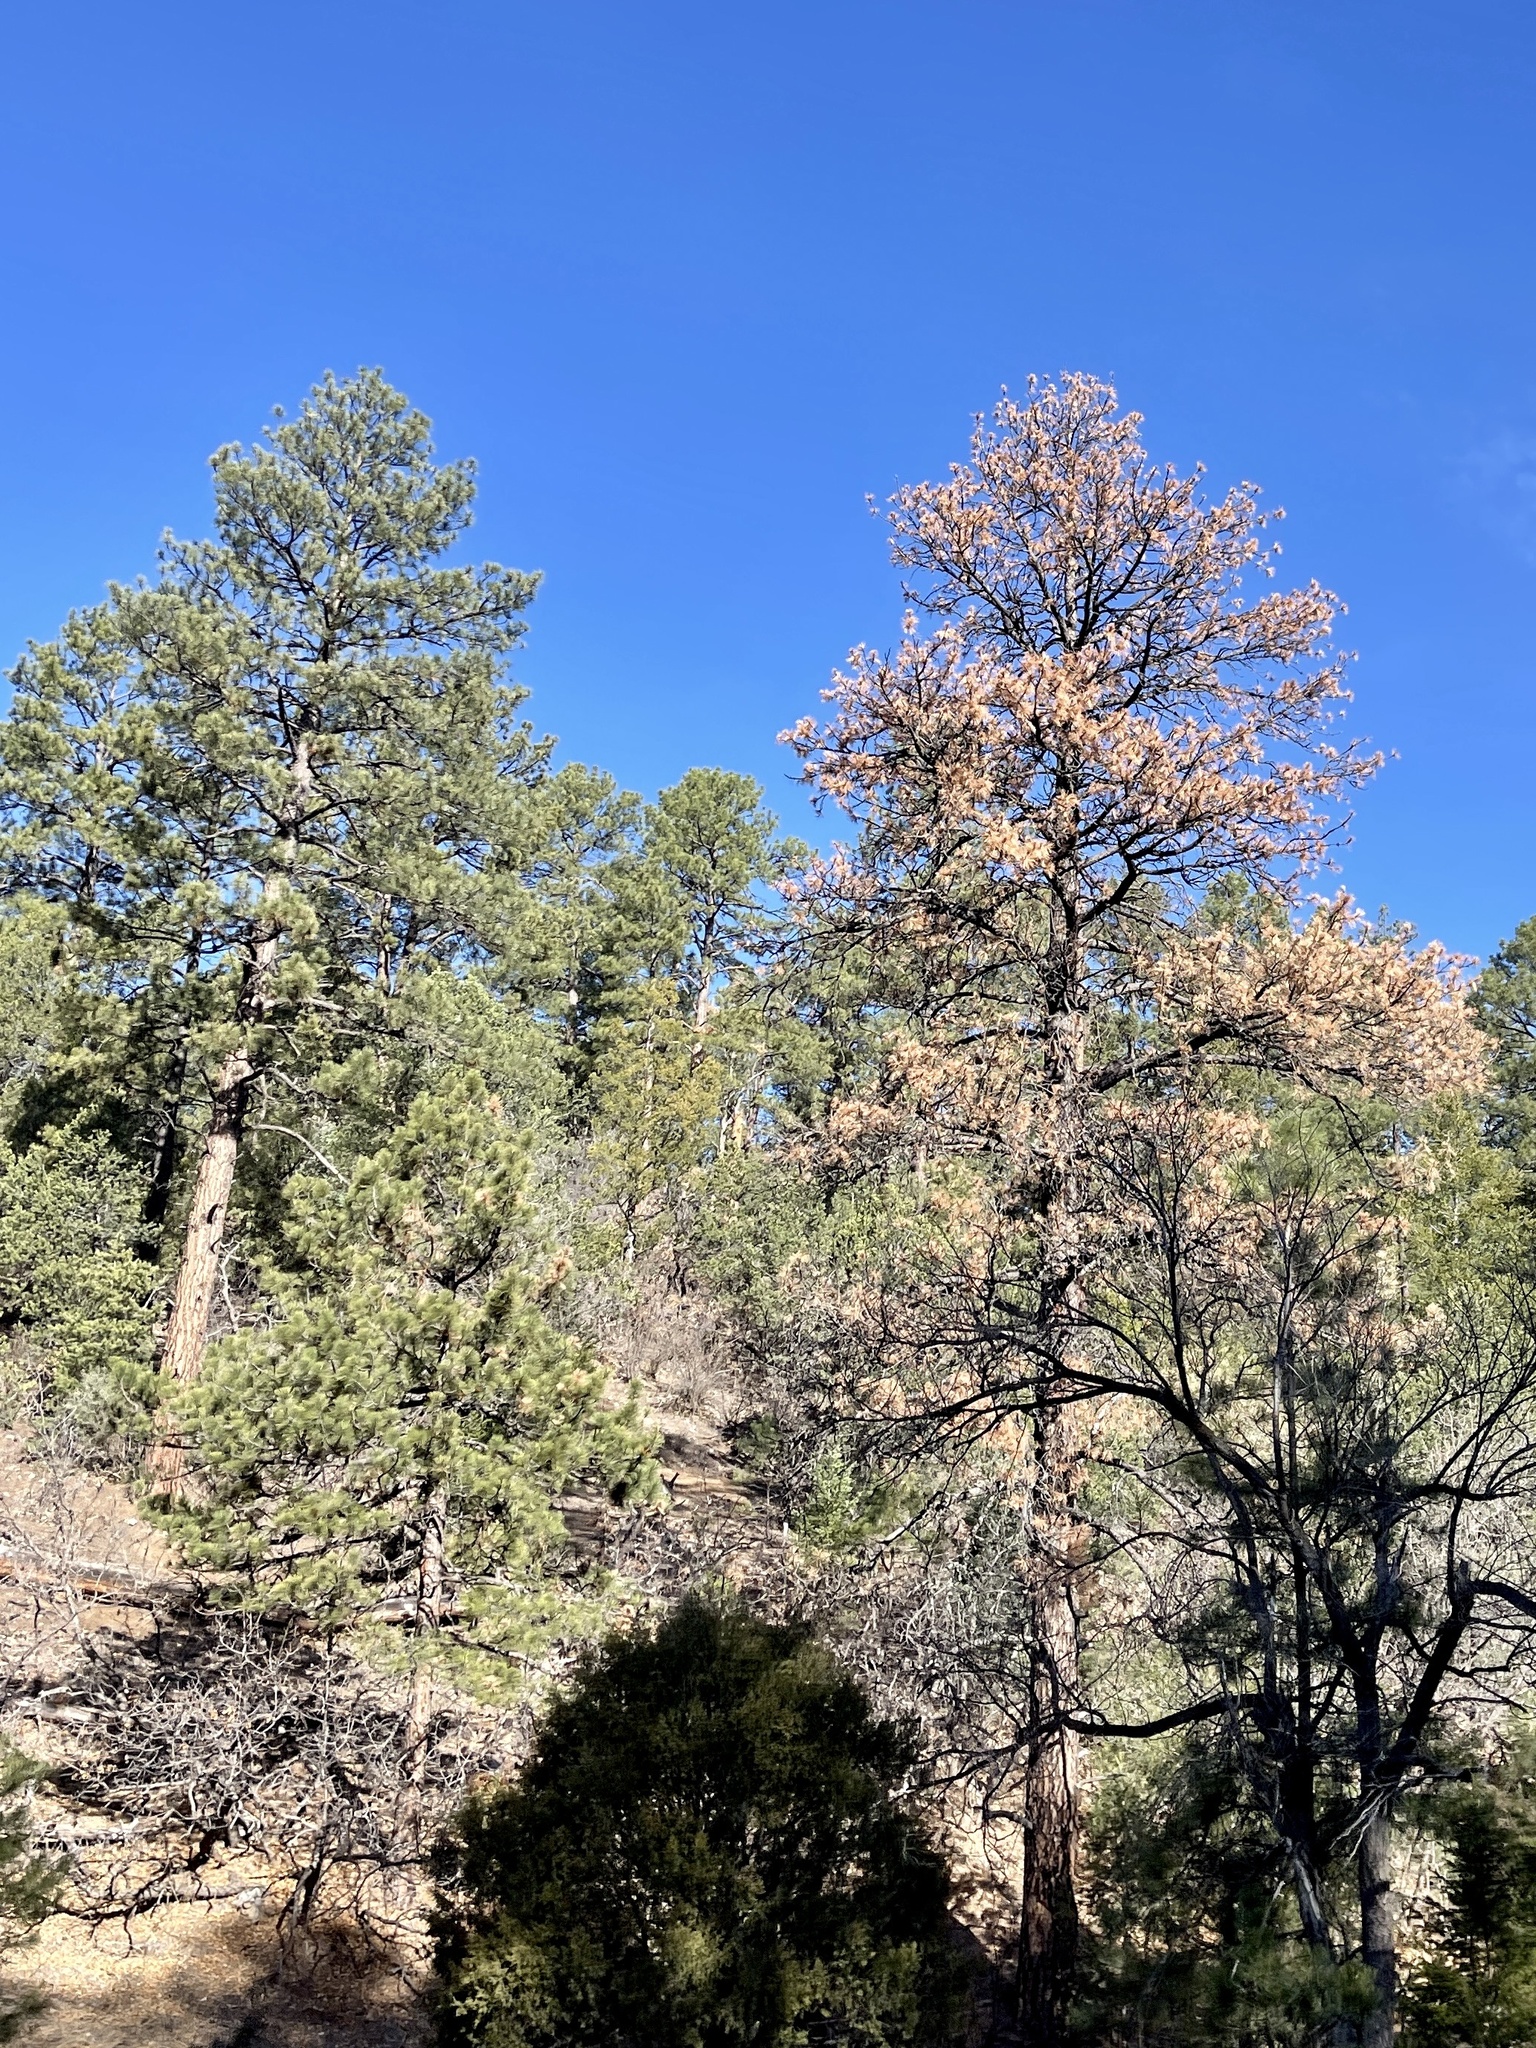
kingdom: Plantae
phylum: Tracheophyta
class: Pinopsida
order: Pinales
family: Pinaceae
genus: Pinus
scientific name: Pinus ponderosa
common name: Western yellow-pine
